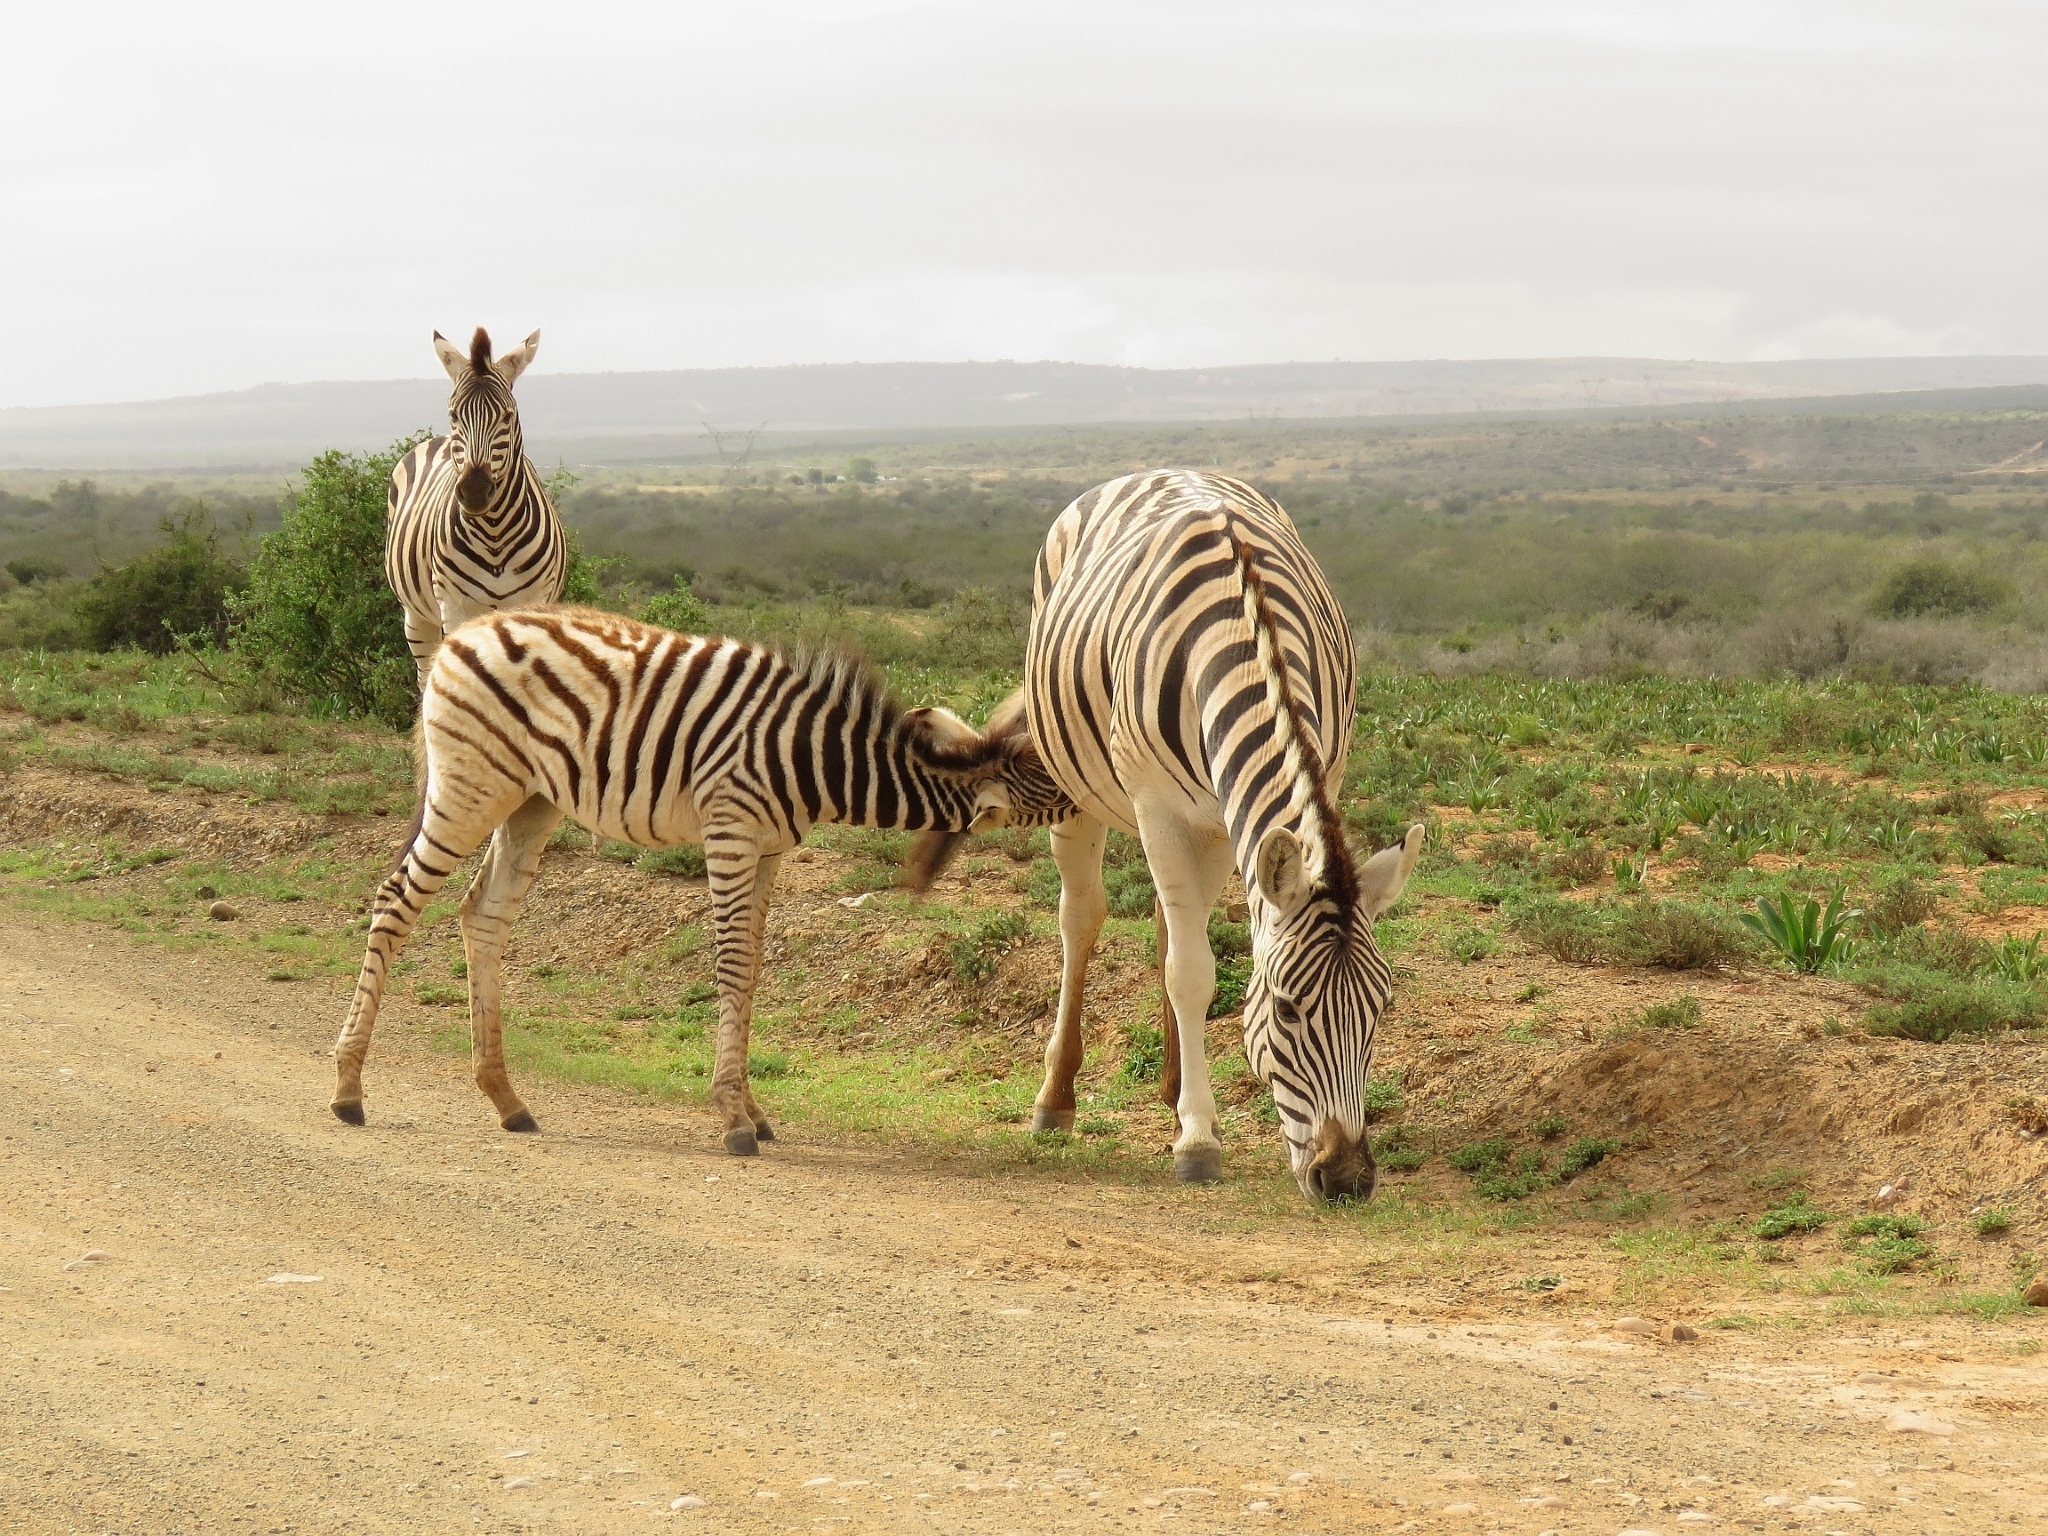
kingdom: Animalia
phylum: Chordata
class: Mammalia
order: Perissodactyla
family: Equidae
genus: Equus
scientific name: Equus quagga
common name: Plains zebra
